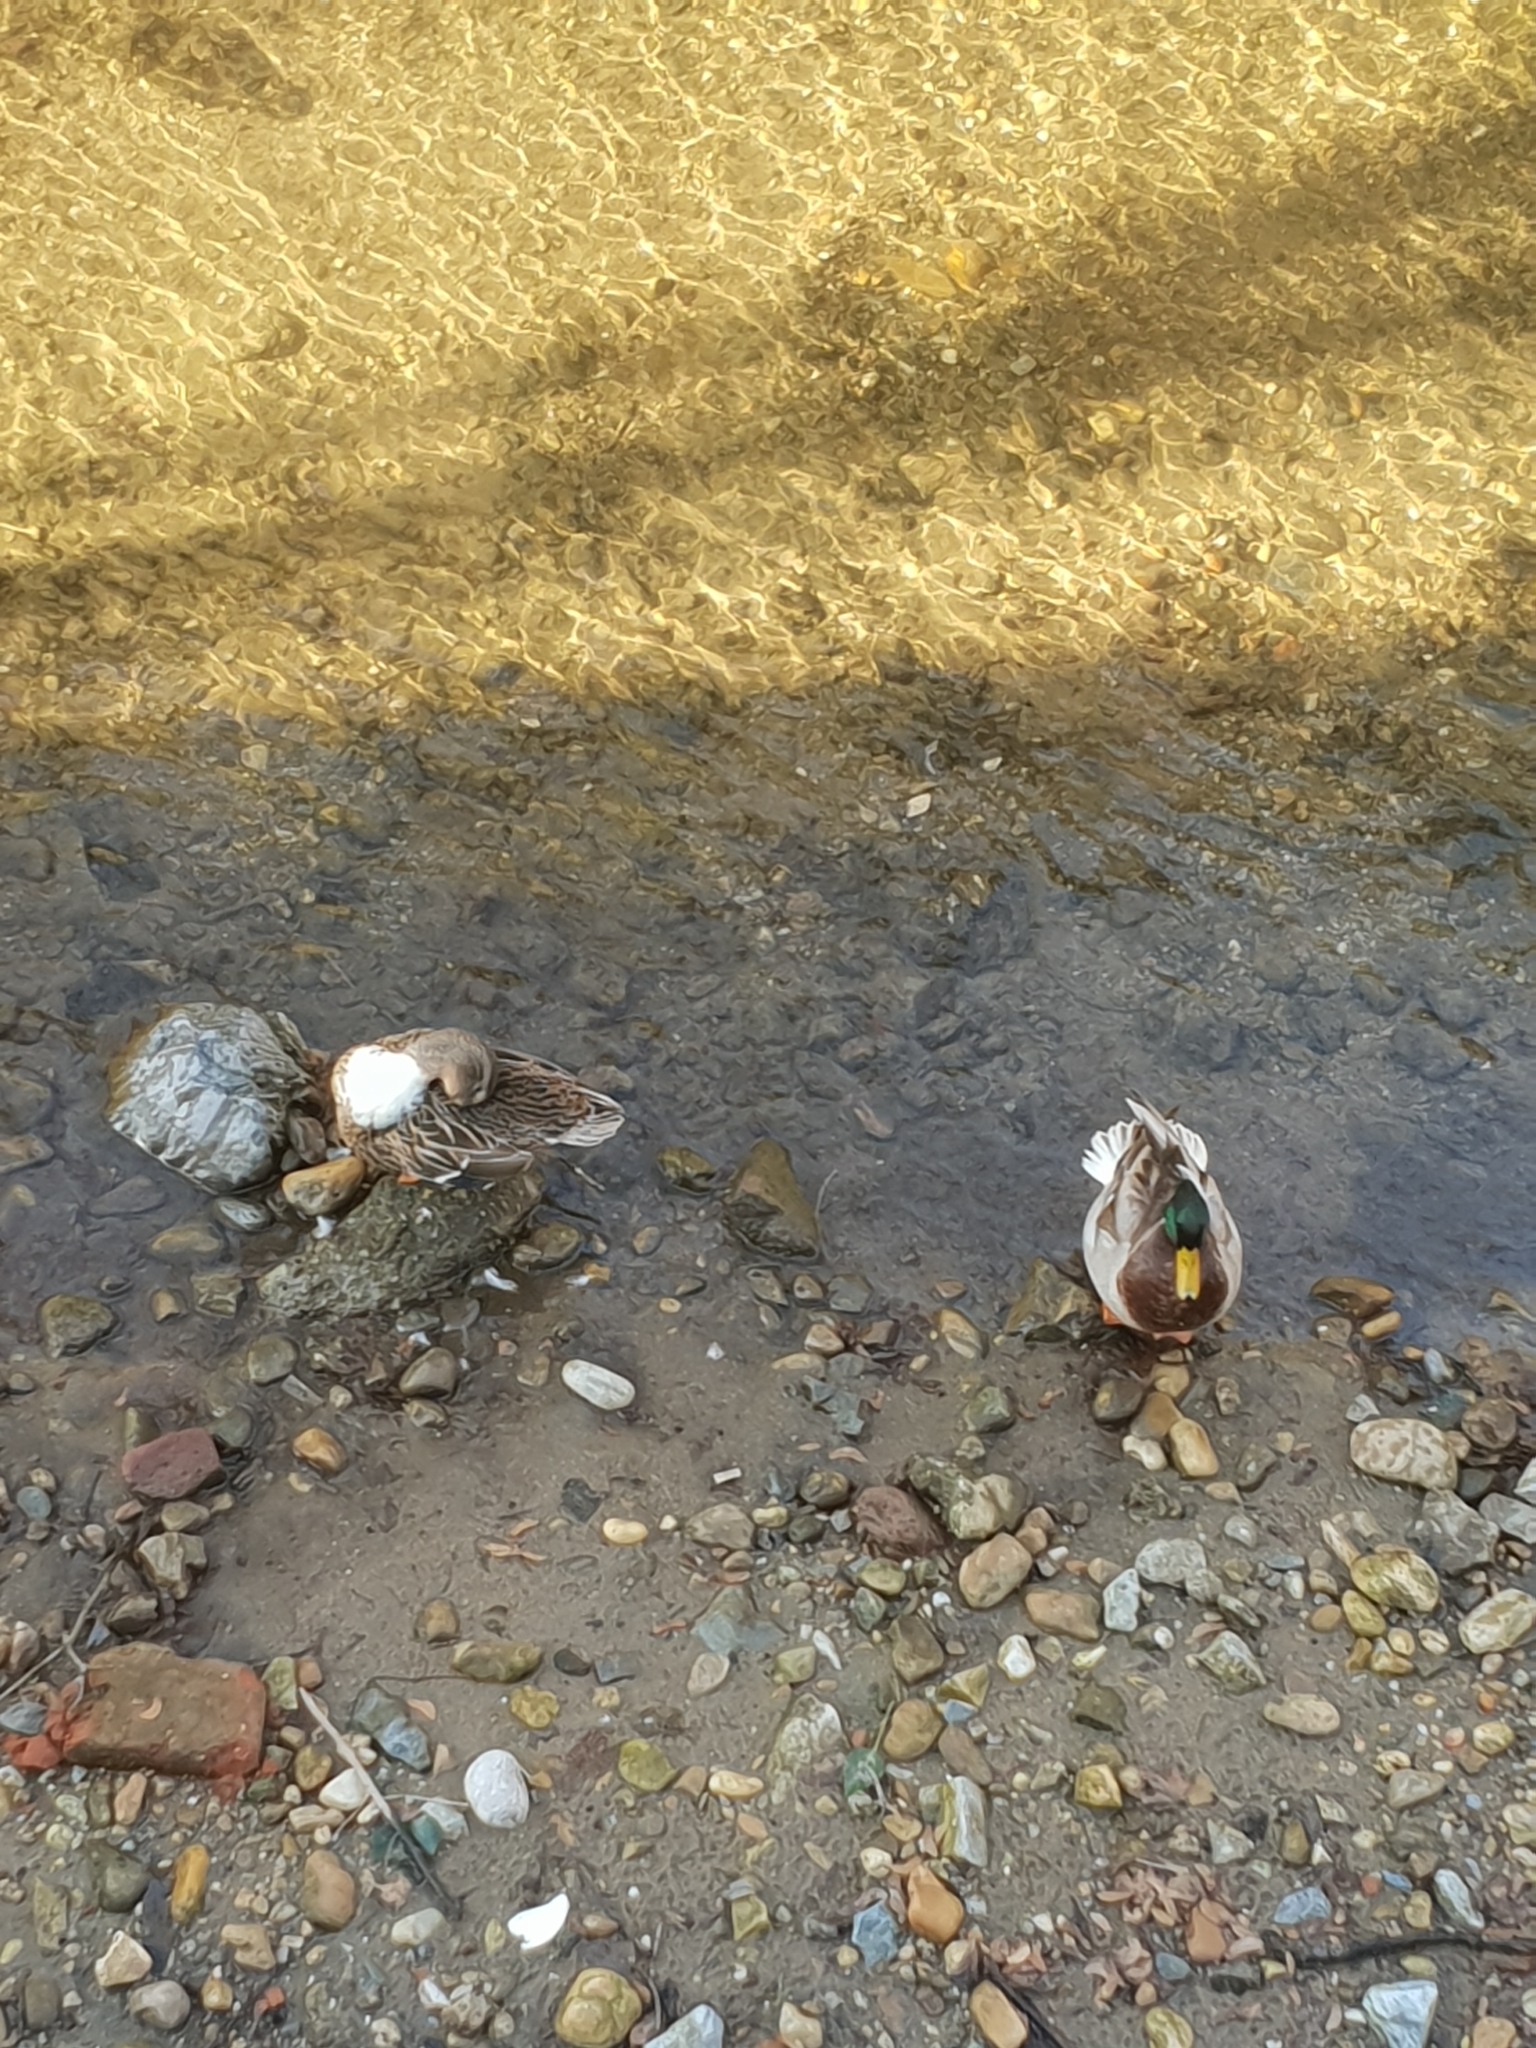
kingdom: Animalia
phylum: Chordata
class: Aves
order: Anseriformes
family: Anatidae
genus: Anas
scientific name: Anas platyrhynchos
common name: Mallard
